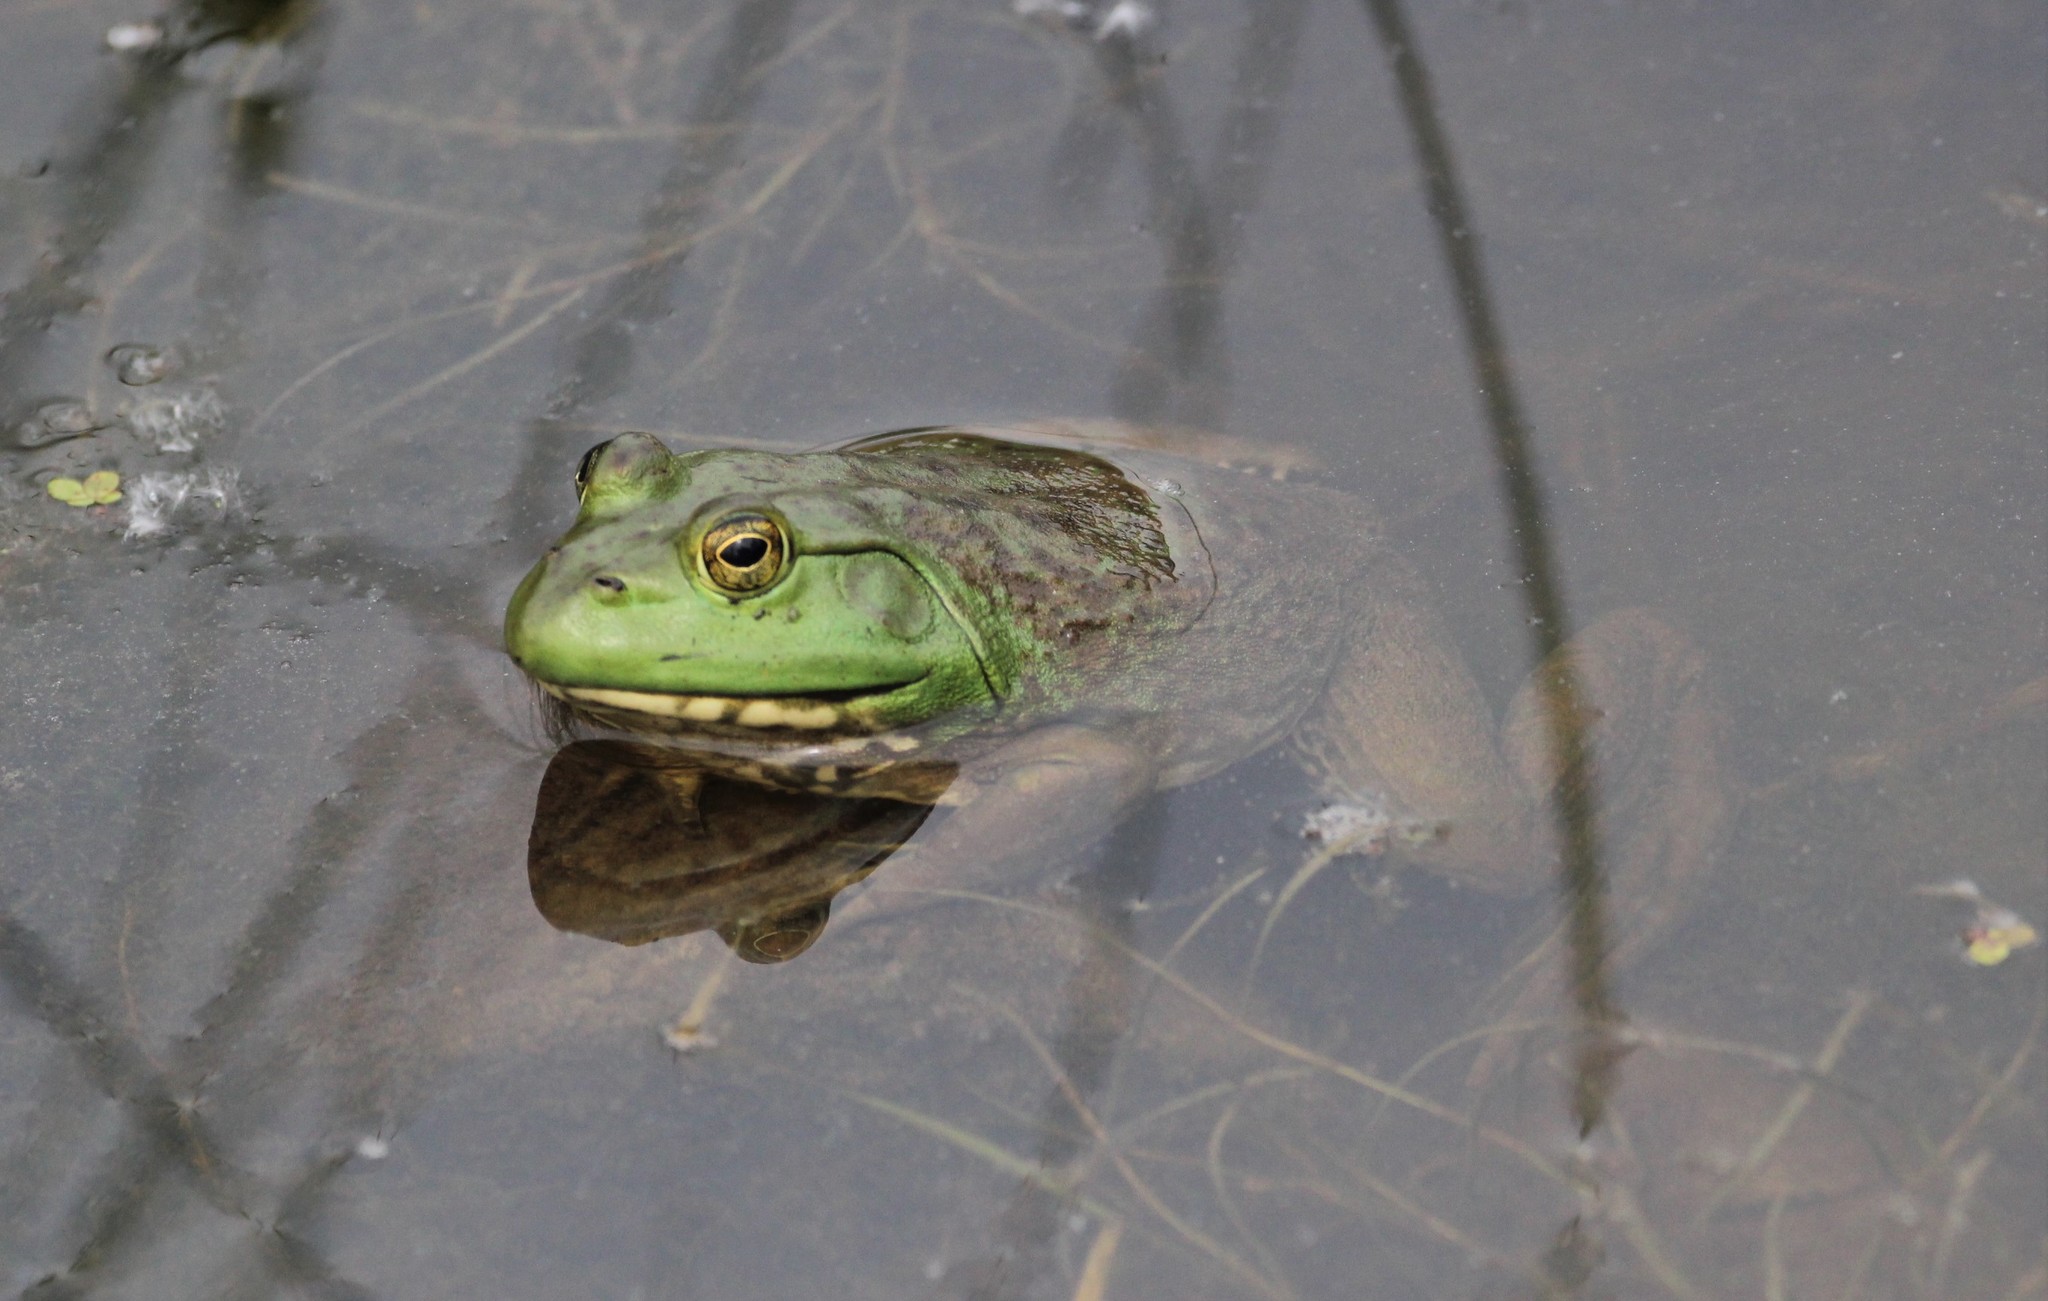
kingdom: Animalia
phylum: Chordata
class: Amphibia
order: Anura
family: Ranidae
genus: Lithobates
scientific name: Lithobates catesbeianus
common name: American bullfrog
